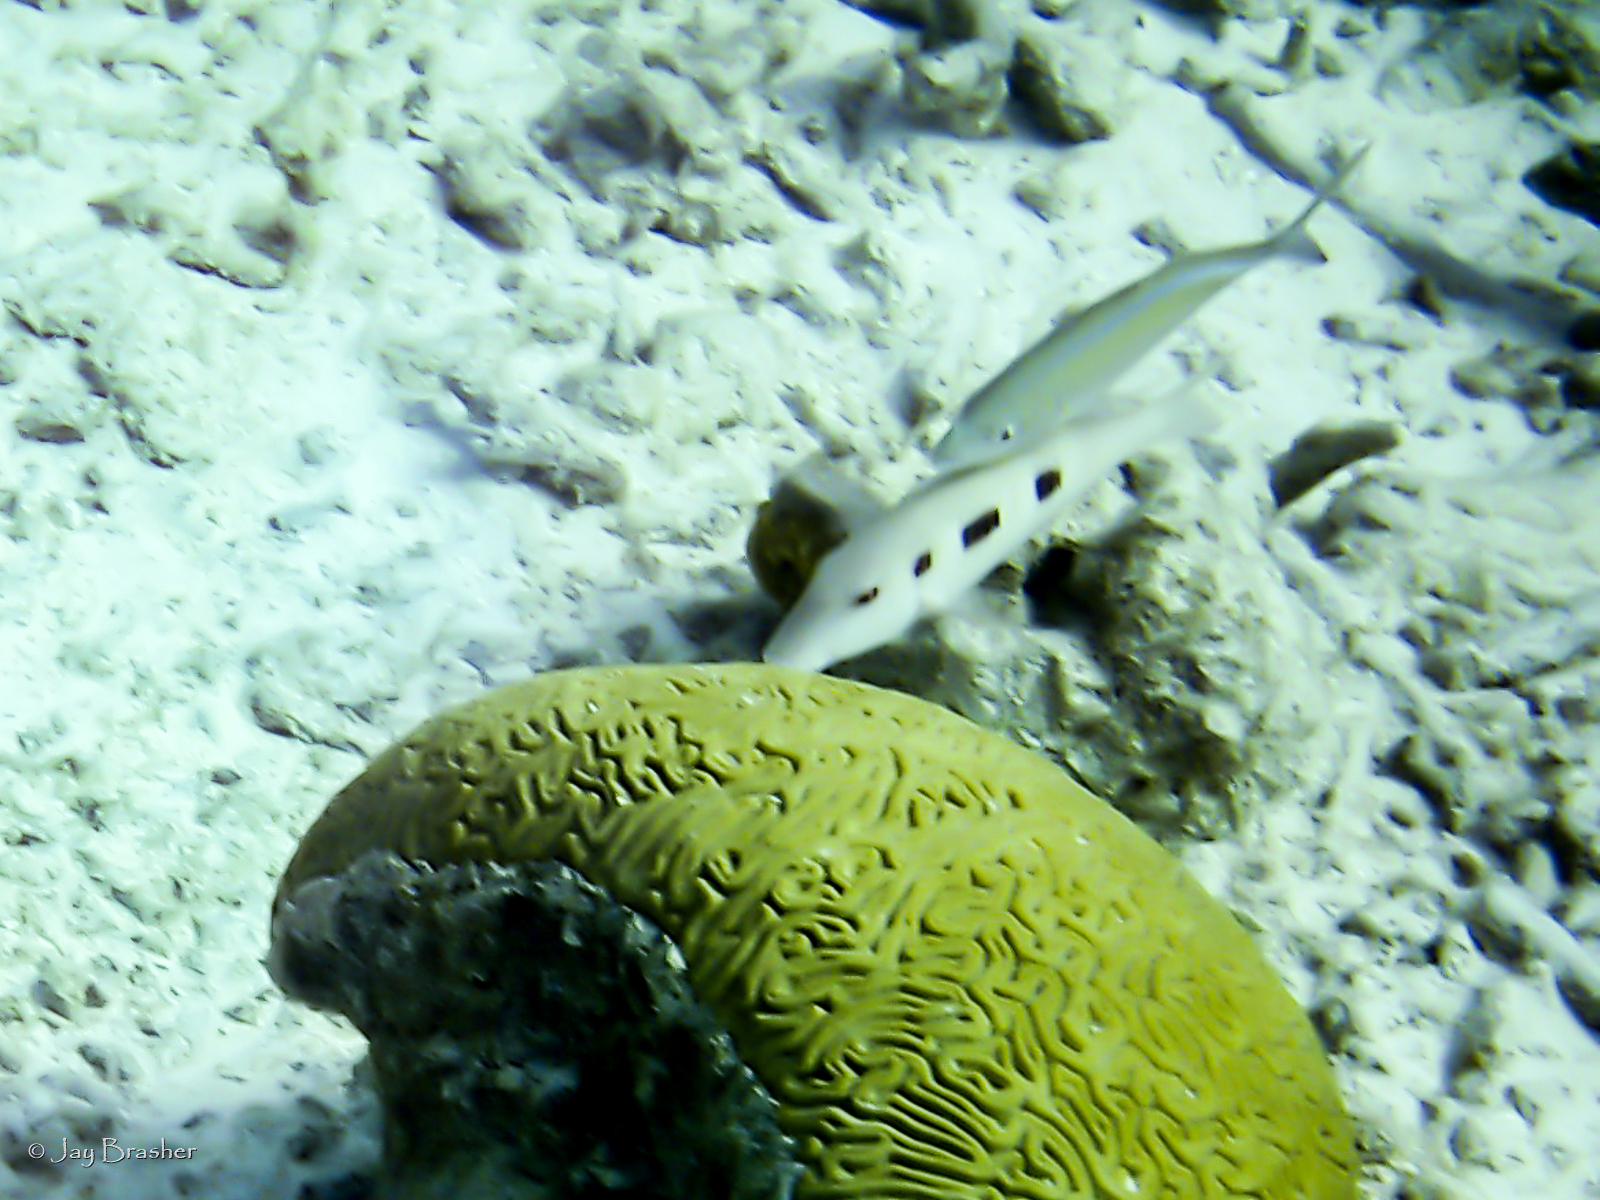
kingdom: Animalia
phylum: Chordata
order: Perciformes
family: Mullidae
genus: Pseudupeneus
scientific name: Pseudupeneus maculatus
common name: Spotted goatfish
